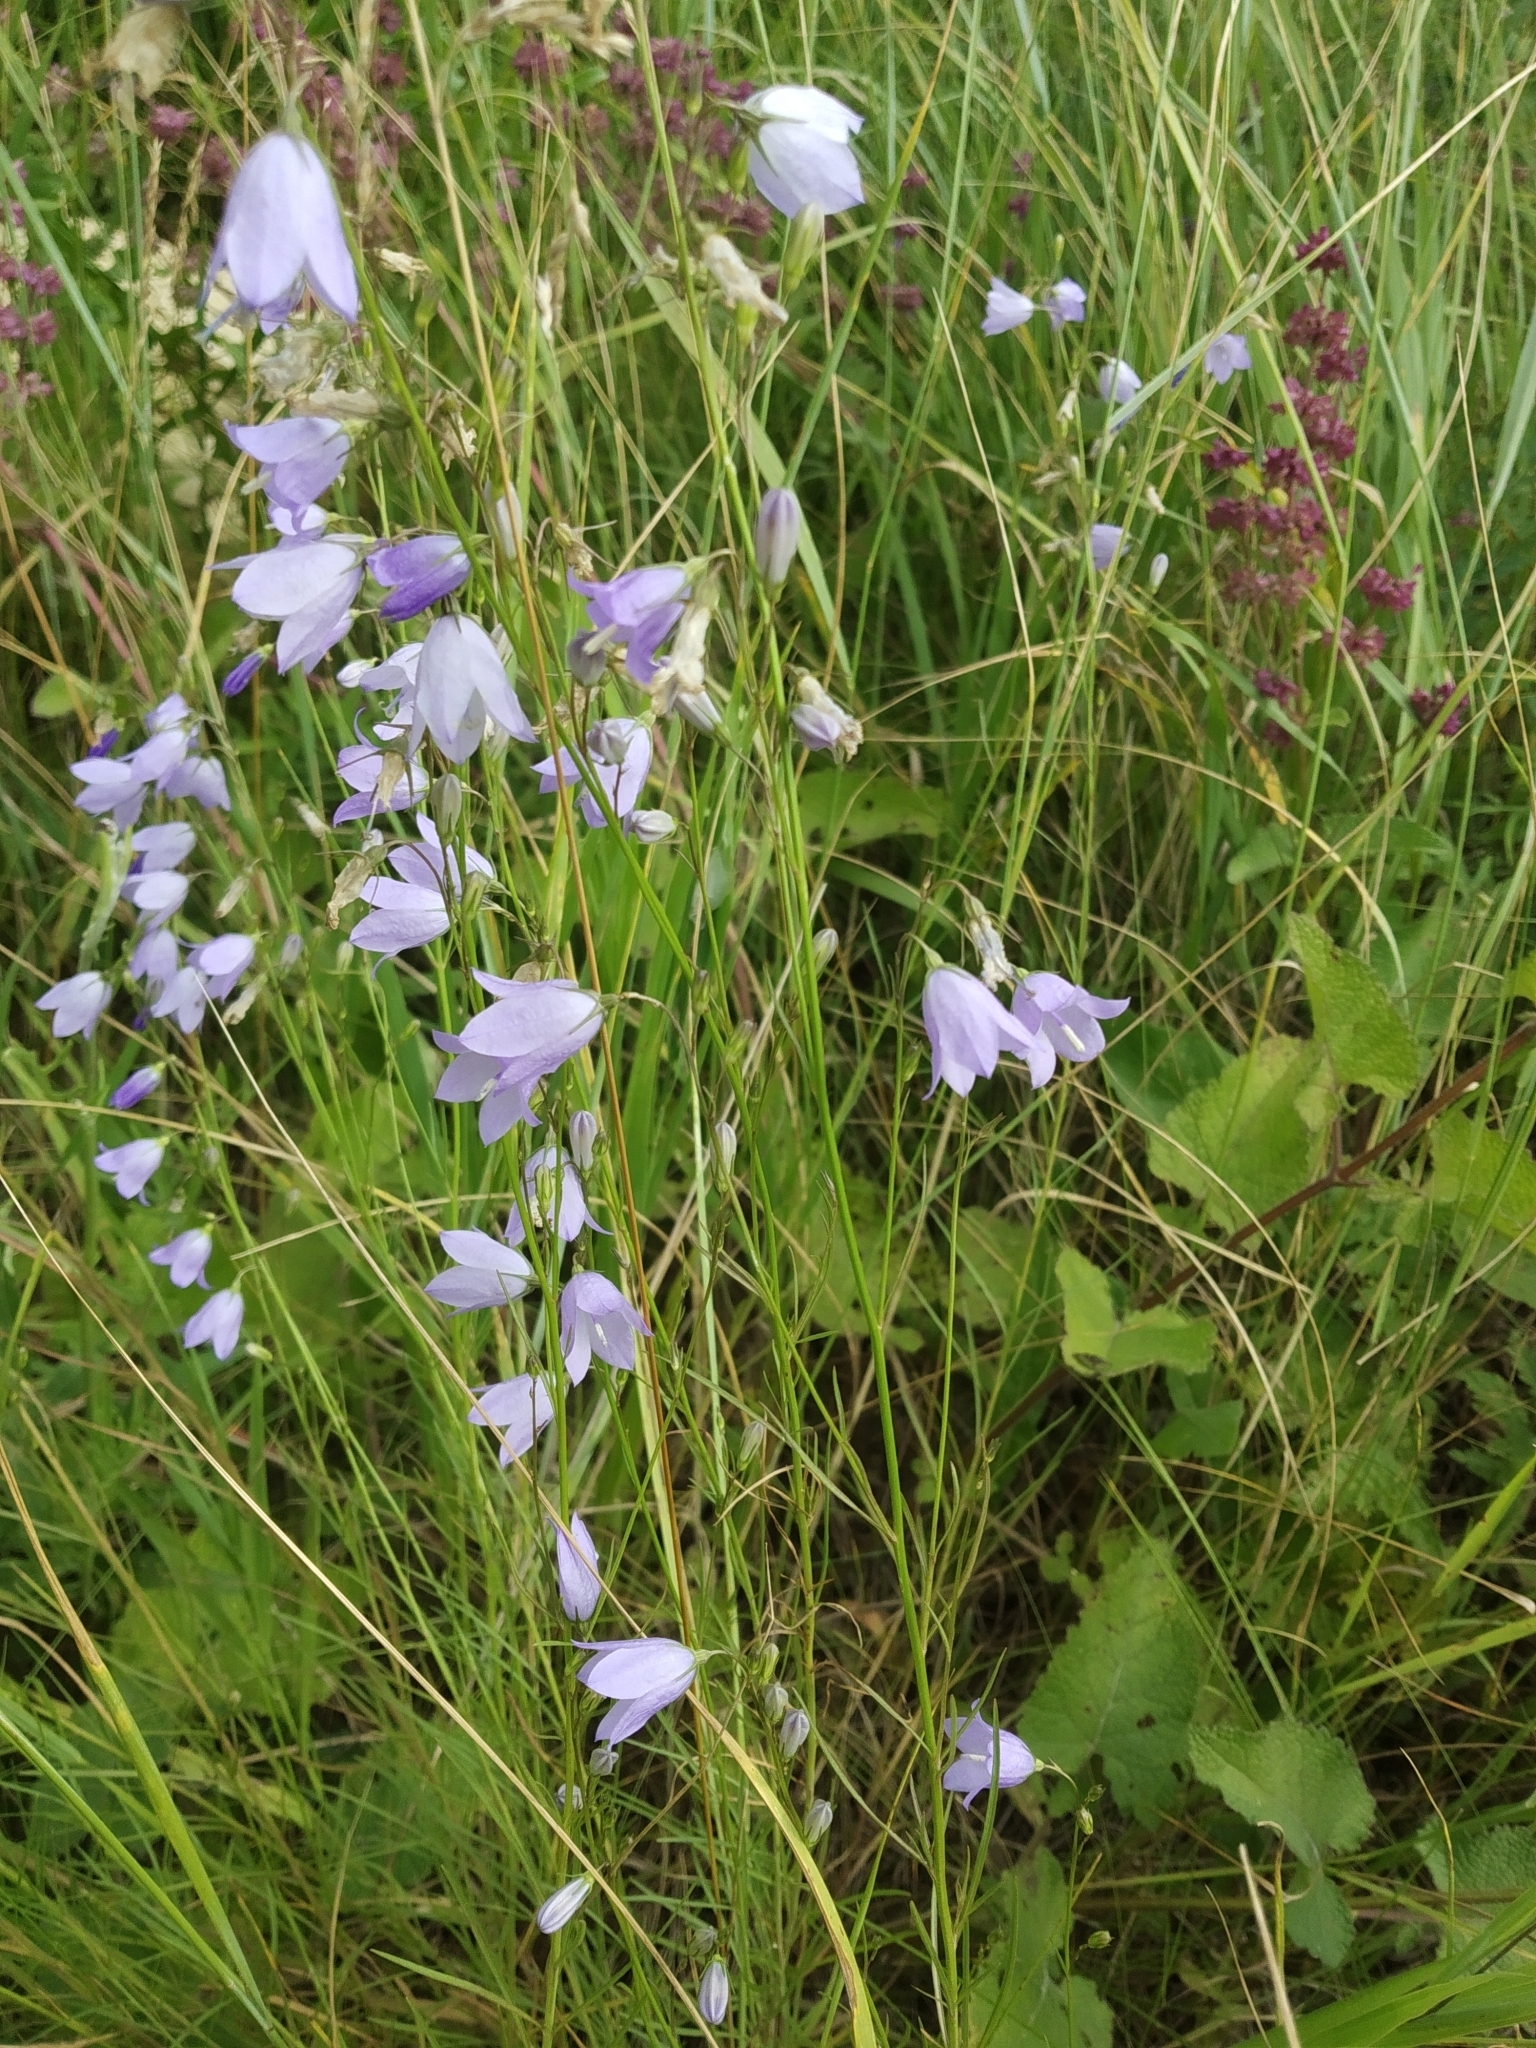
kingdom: Plantae
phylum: Tracheophyta
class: Magnoliopsida
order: Asterales
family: Campanulaceae
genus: Campanula
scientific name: Campanula rotundifolia
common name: Harebell
